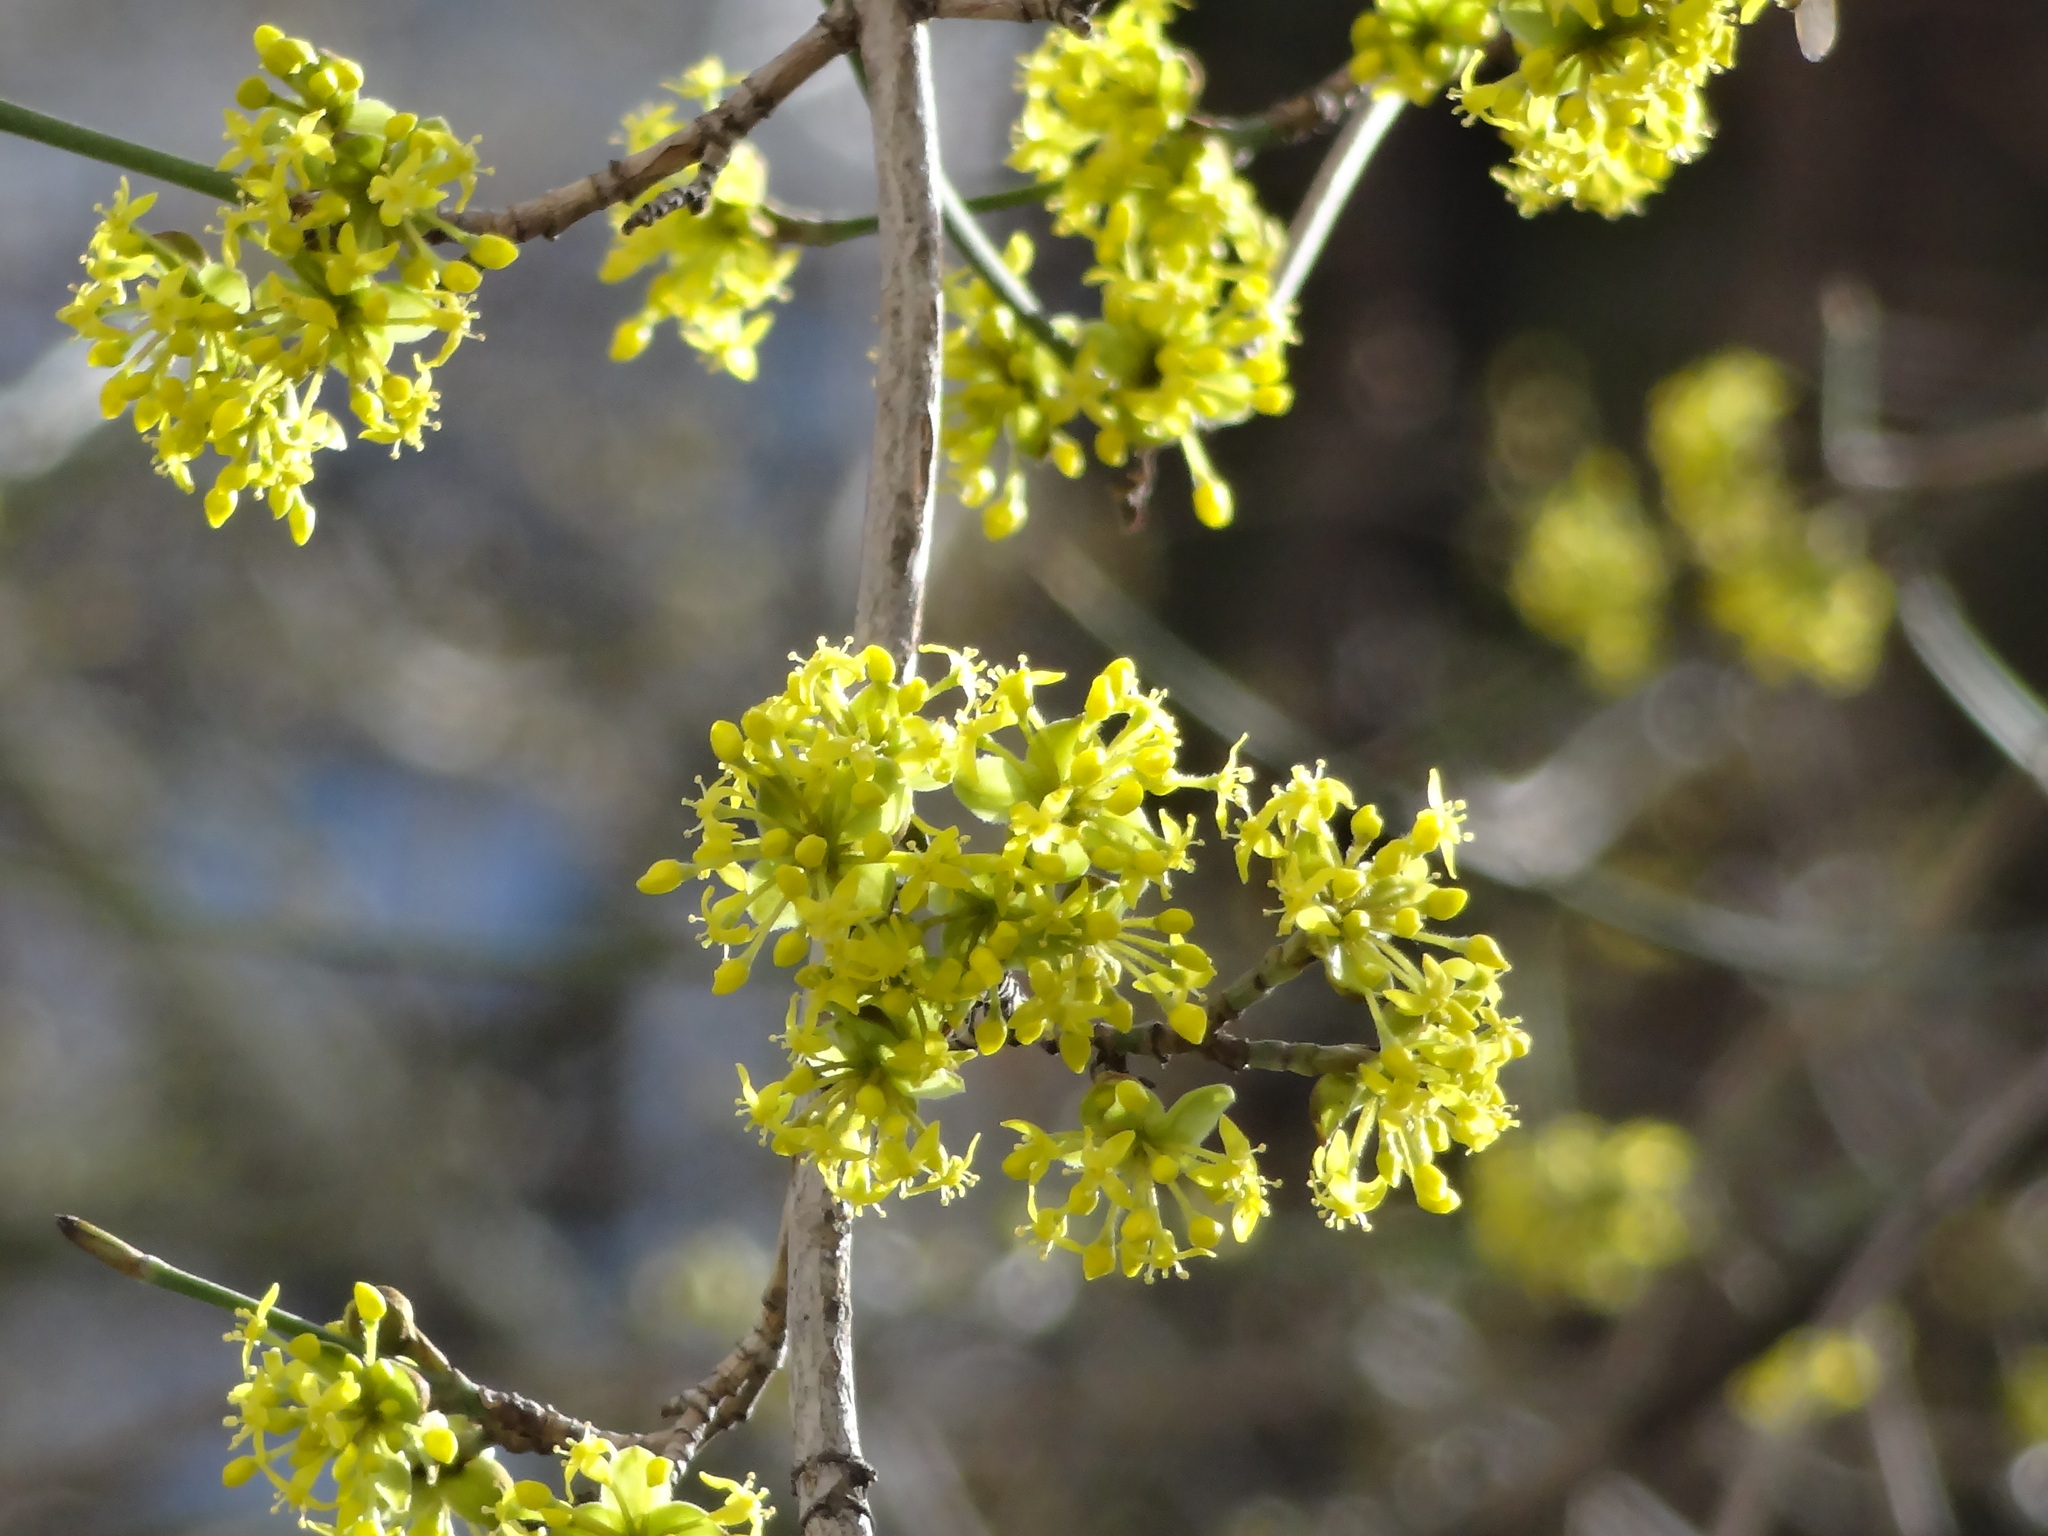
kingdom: Plantae
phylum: Tracheophyta
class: Magnoliopsida
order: Cornales
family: Cornaceae
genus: Cornus
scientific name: Cornus mas
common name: Cornelian-cherry
